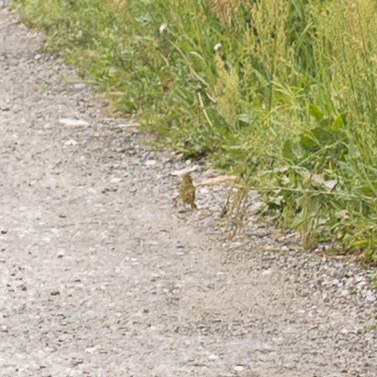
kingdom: Animalia
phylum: Chordata
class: Aves
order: Passeriformes
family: Emberizidae
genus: Emberiza
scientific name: Emberiza citrinella
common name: Yellowhammer
